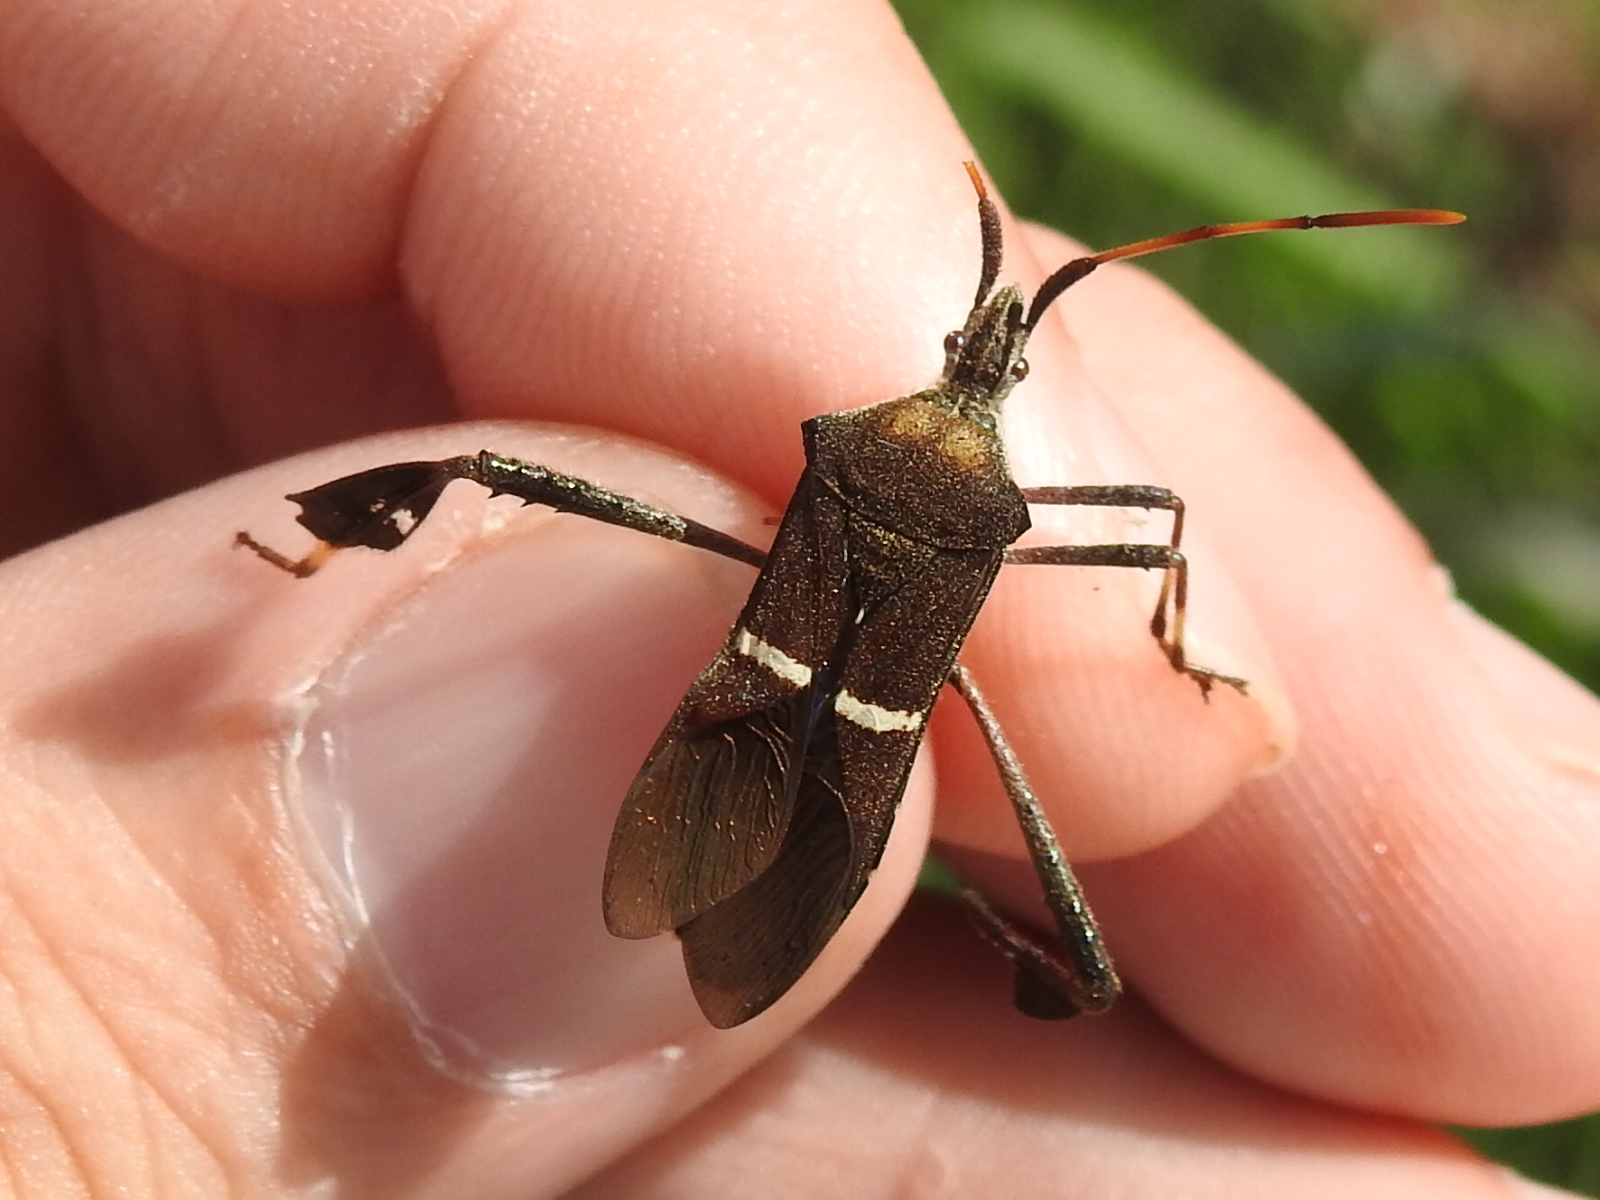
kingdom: Animalia
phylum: Arthropoda
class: Insecta
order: Hemiptera
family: Coreidae
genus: Leptoglossus
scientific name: Leptoglossus phyllopus
